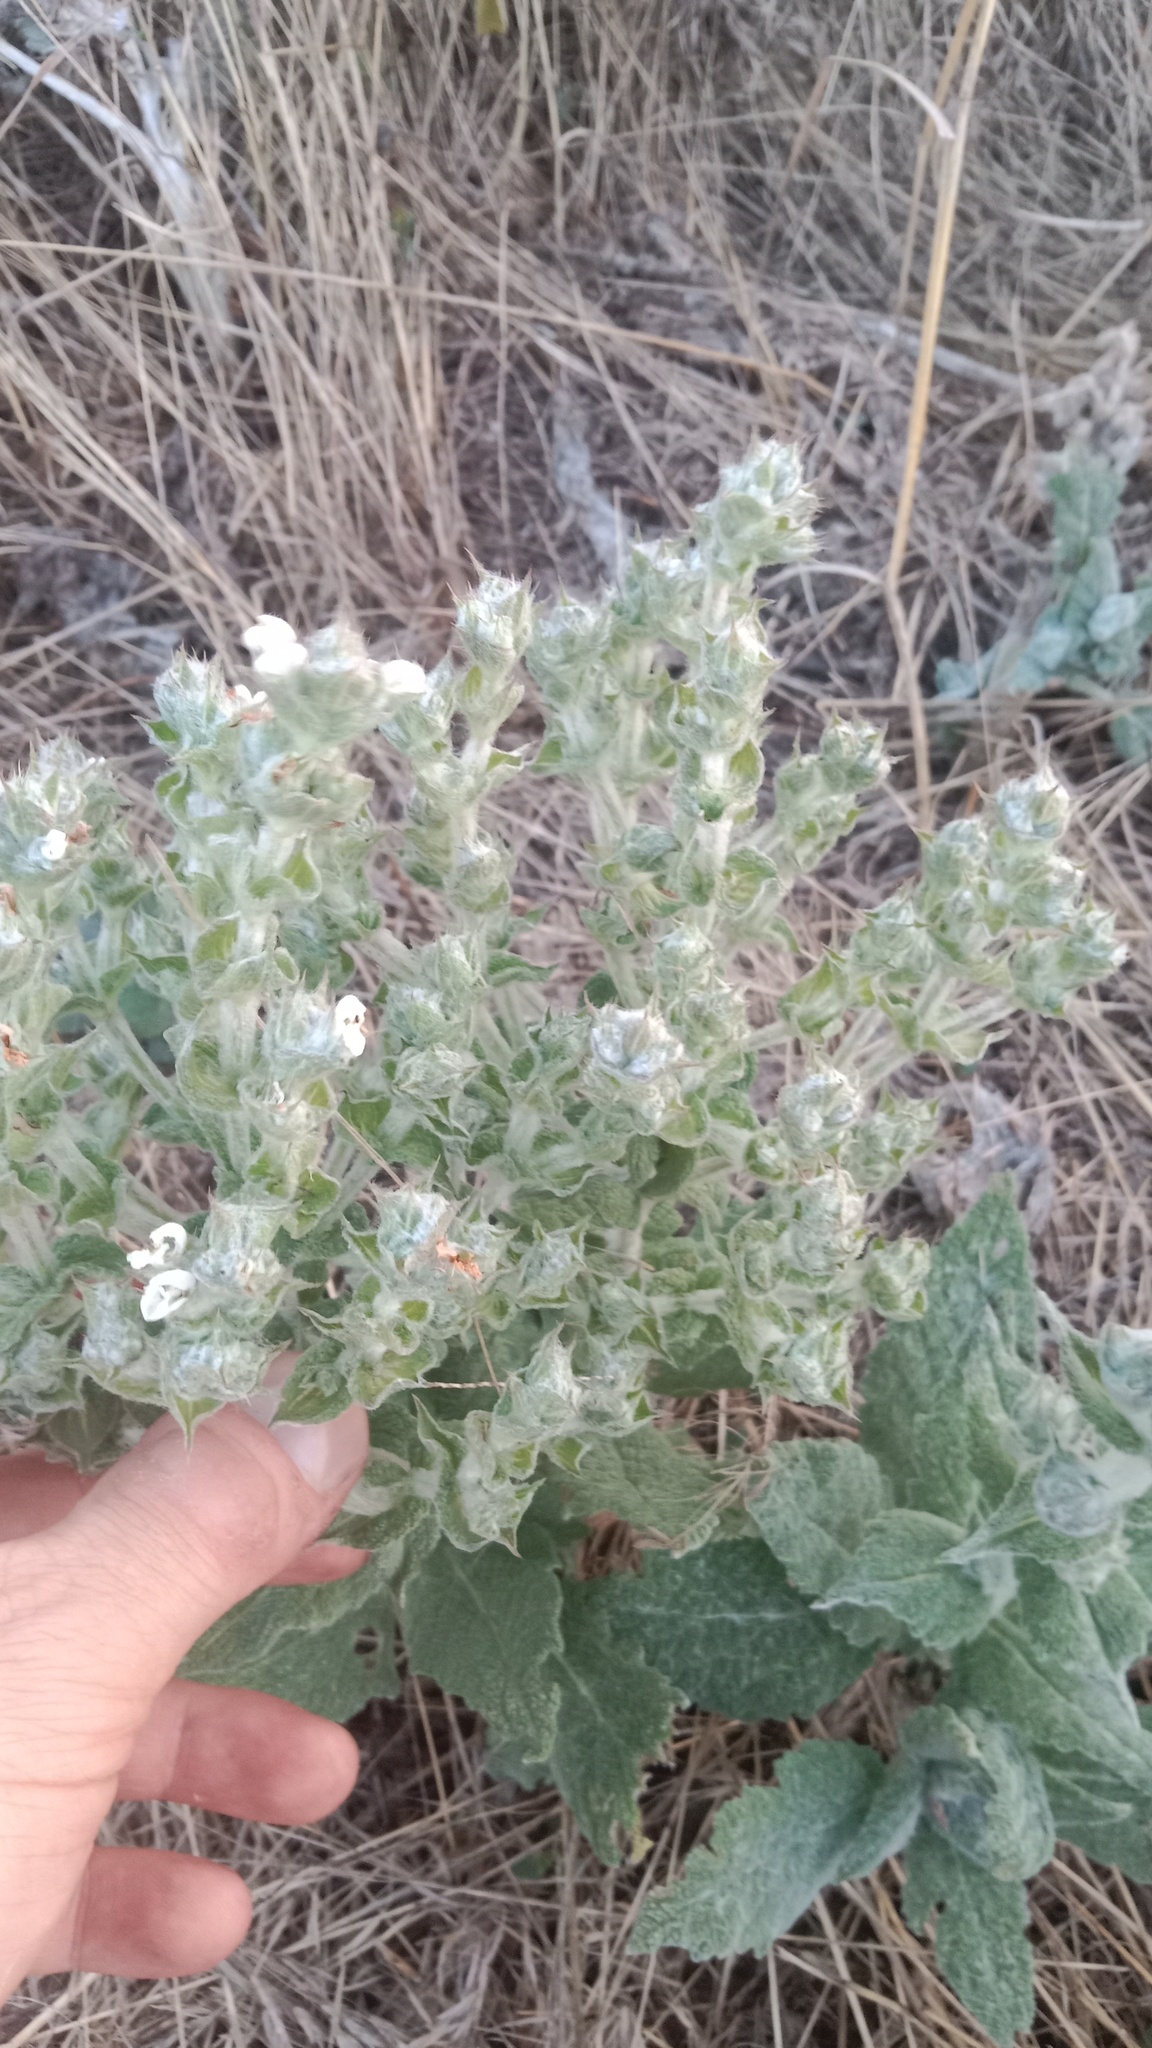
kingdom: Plantae
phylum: Tracheophyta
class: Magnoliopsida
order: Lamiales
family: Lamiaceae
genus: Salvia
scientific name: Salvia aethiopis
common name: Mediterranean sage
